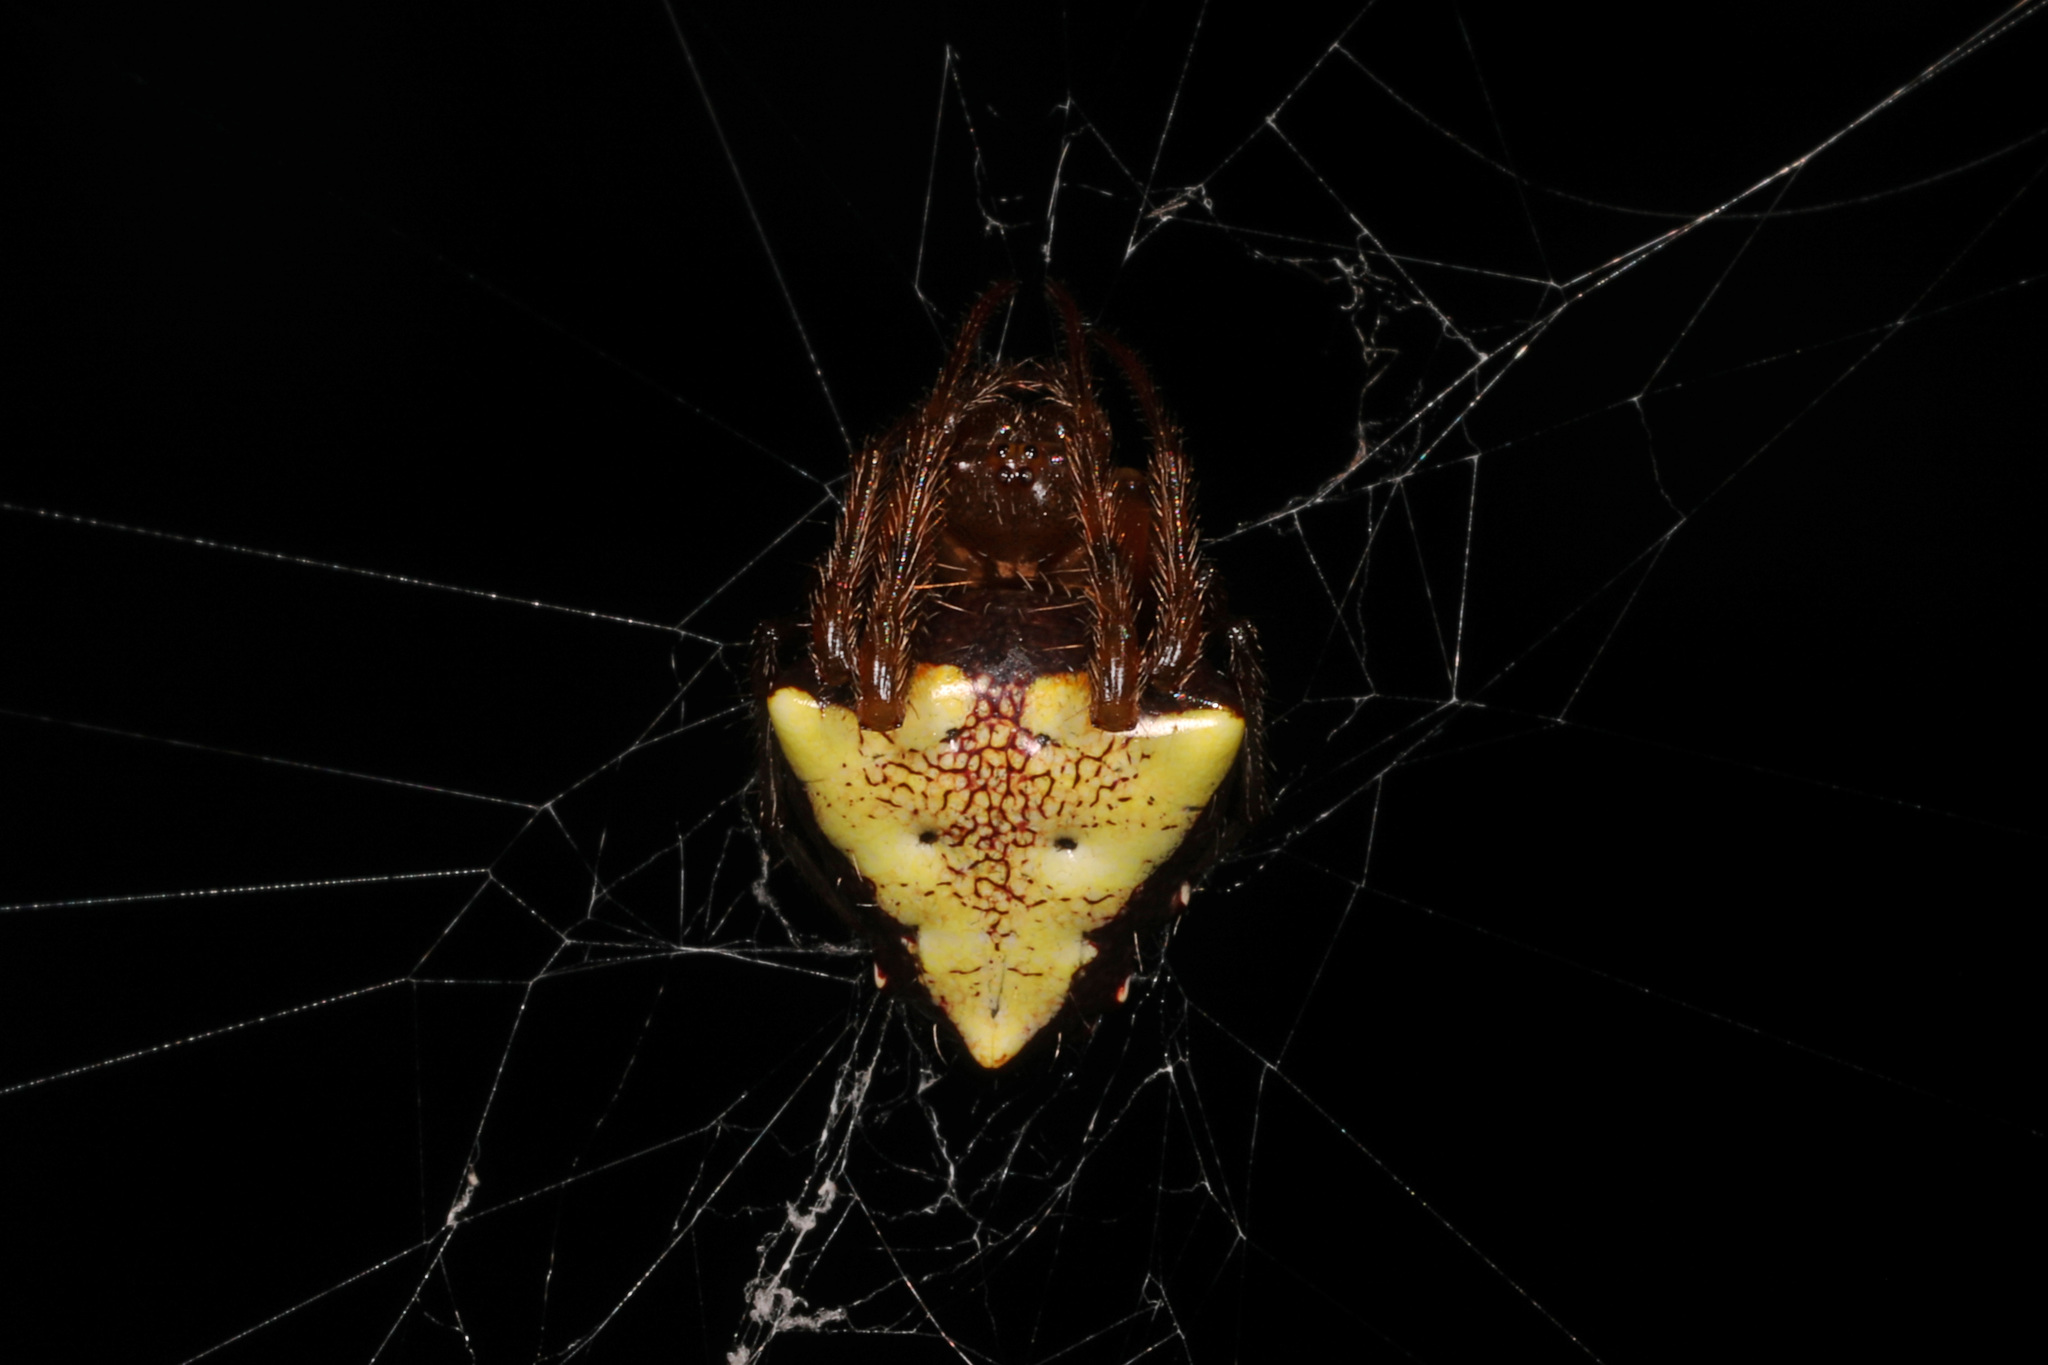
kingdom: Animalia
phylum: Arthropoda
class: Arachnida
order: Araneae
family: Araneidae
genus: Verrucosa
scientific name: Verrucosa arenata
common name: Orb weavers
